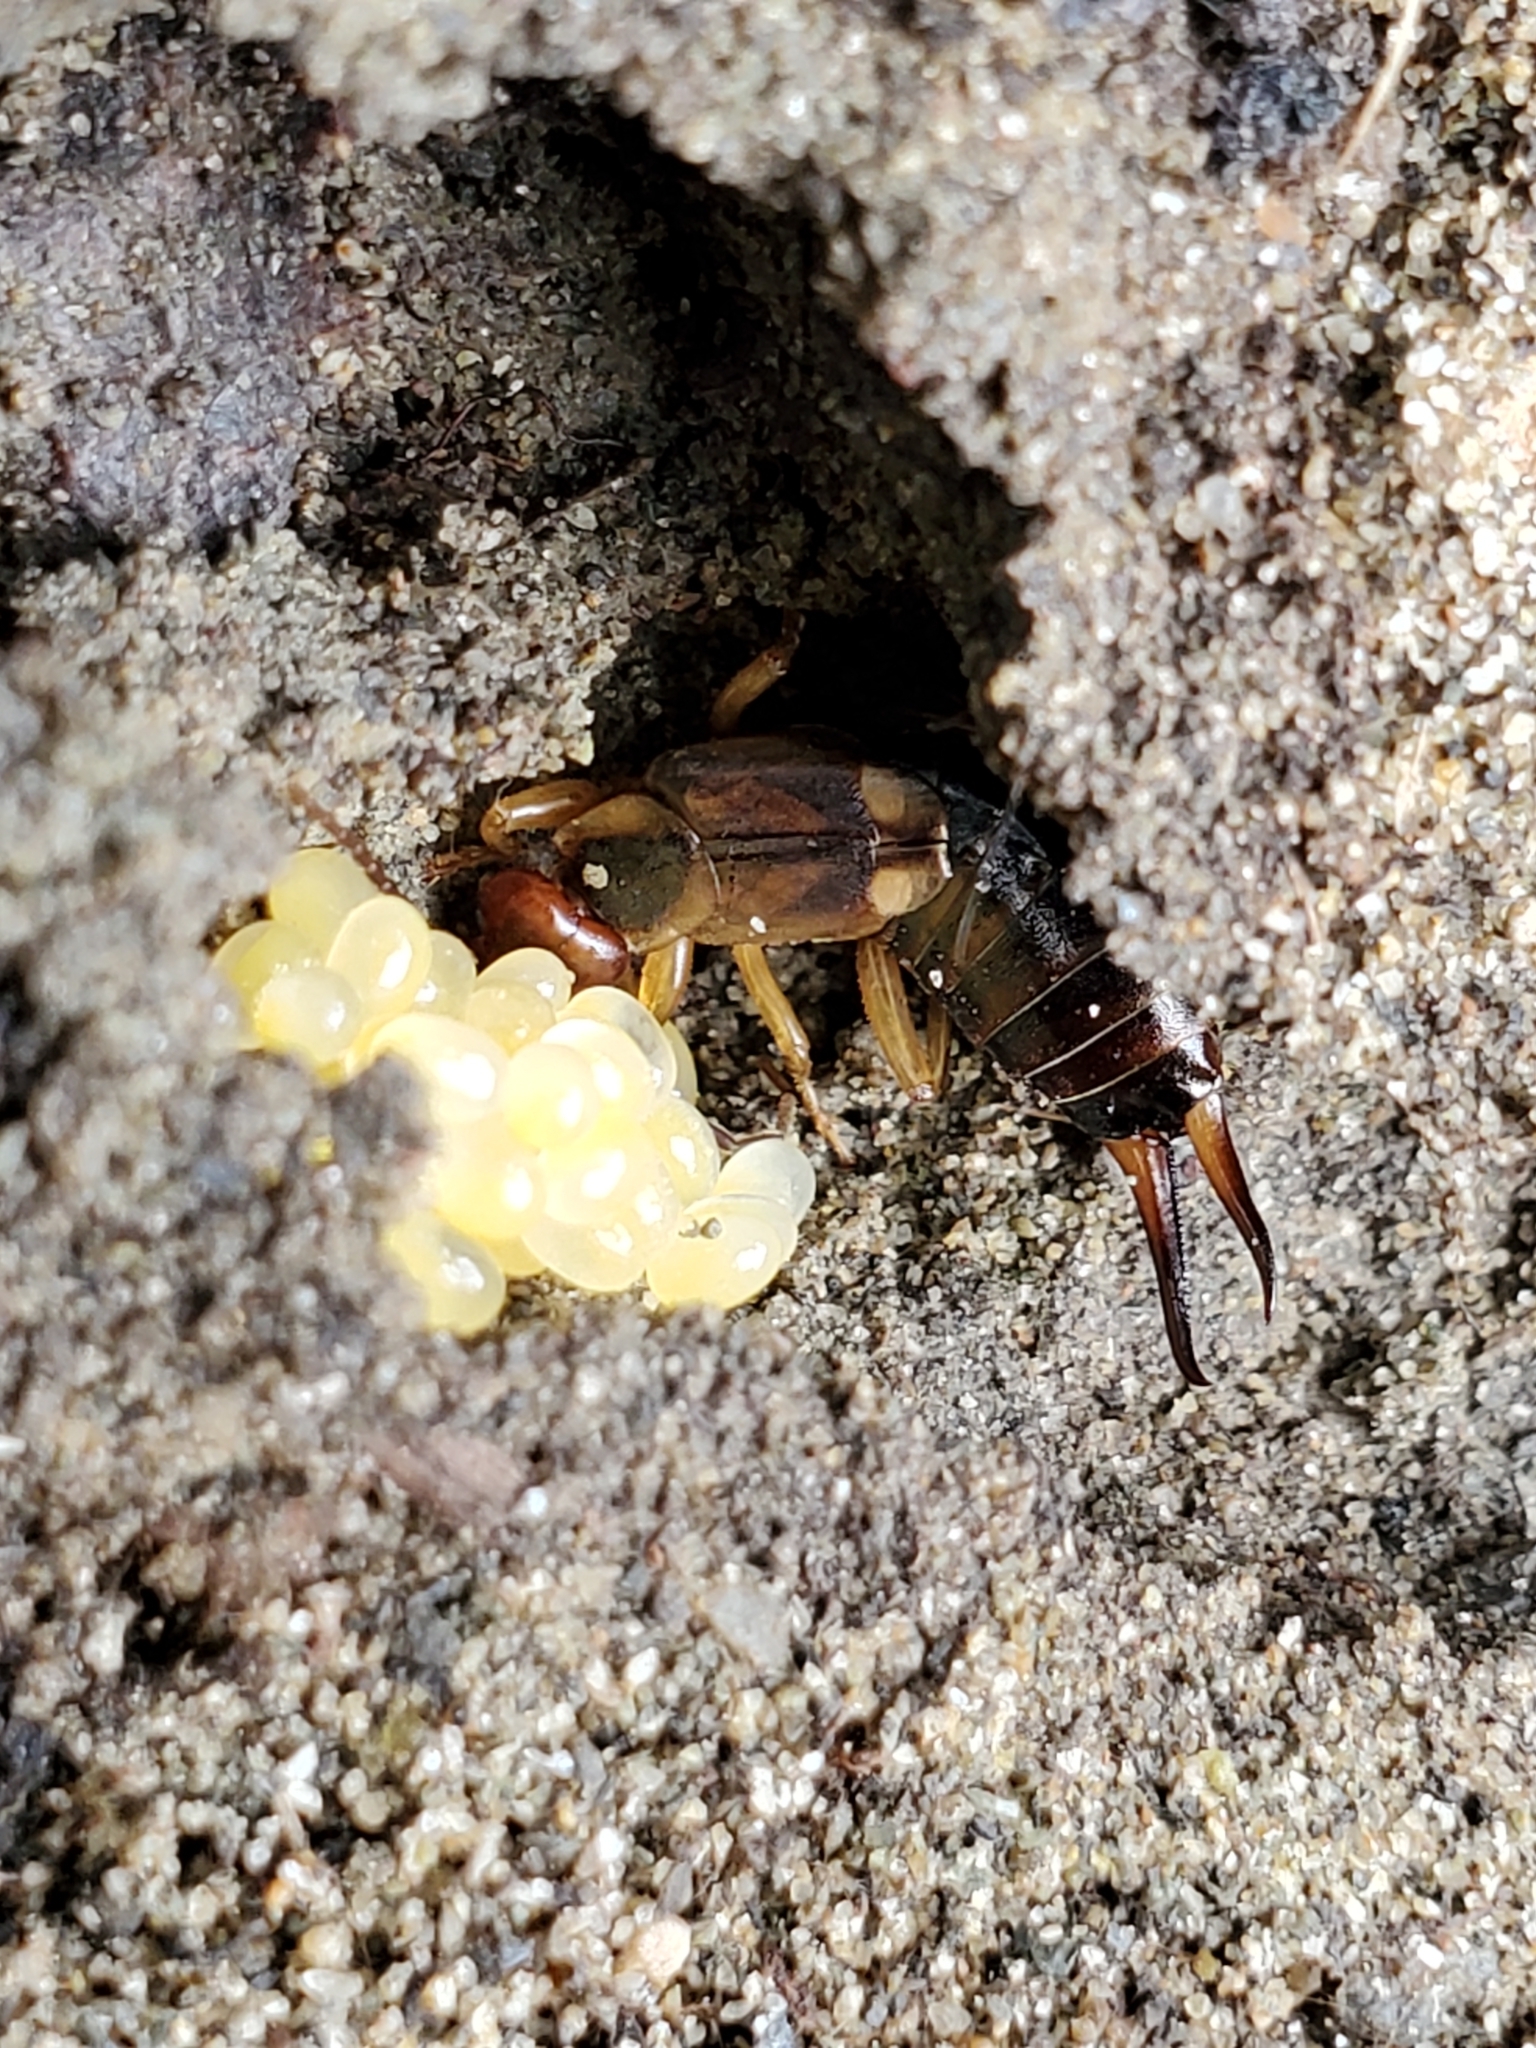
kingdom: Animalia
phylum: Arthropoda
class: Insecta
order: Dermaptera
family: Forficulidae
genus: Forficula
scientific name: Forficula
